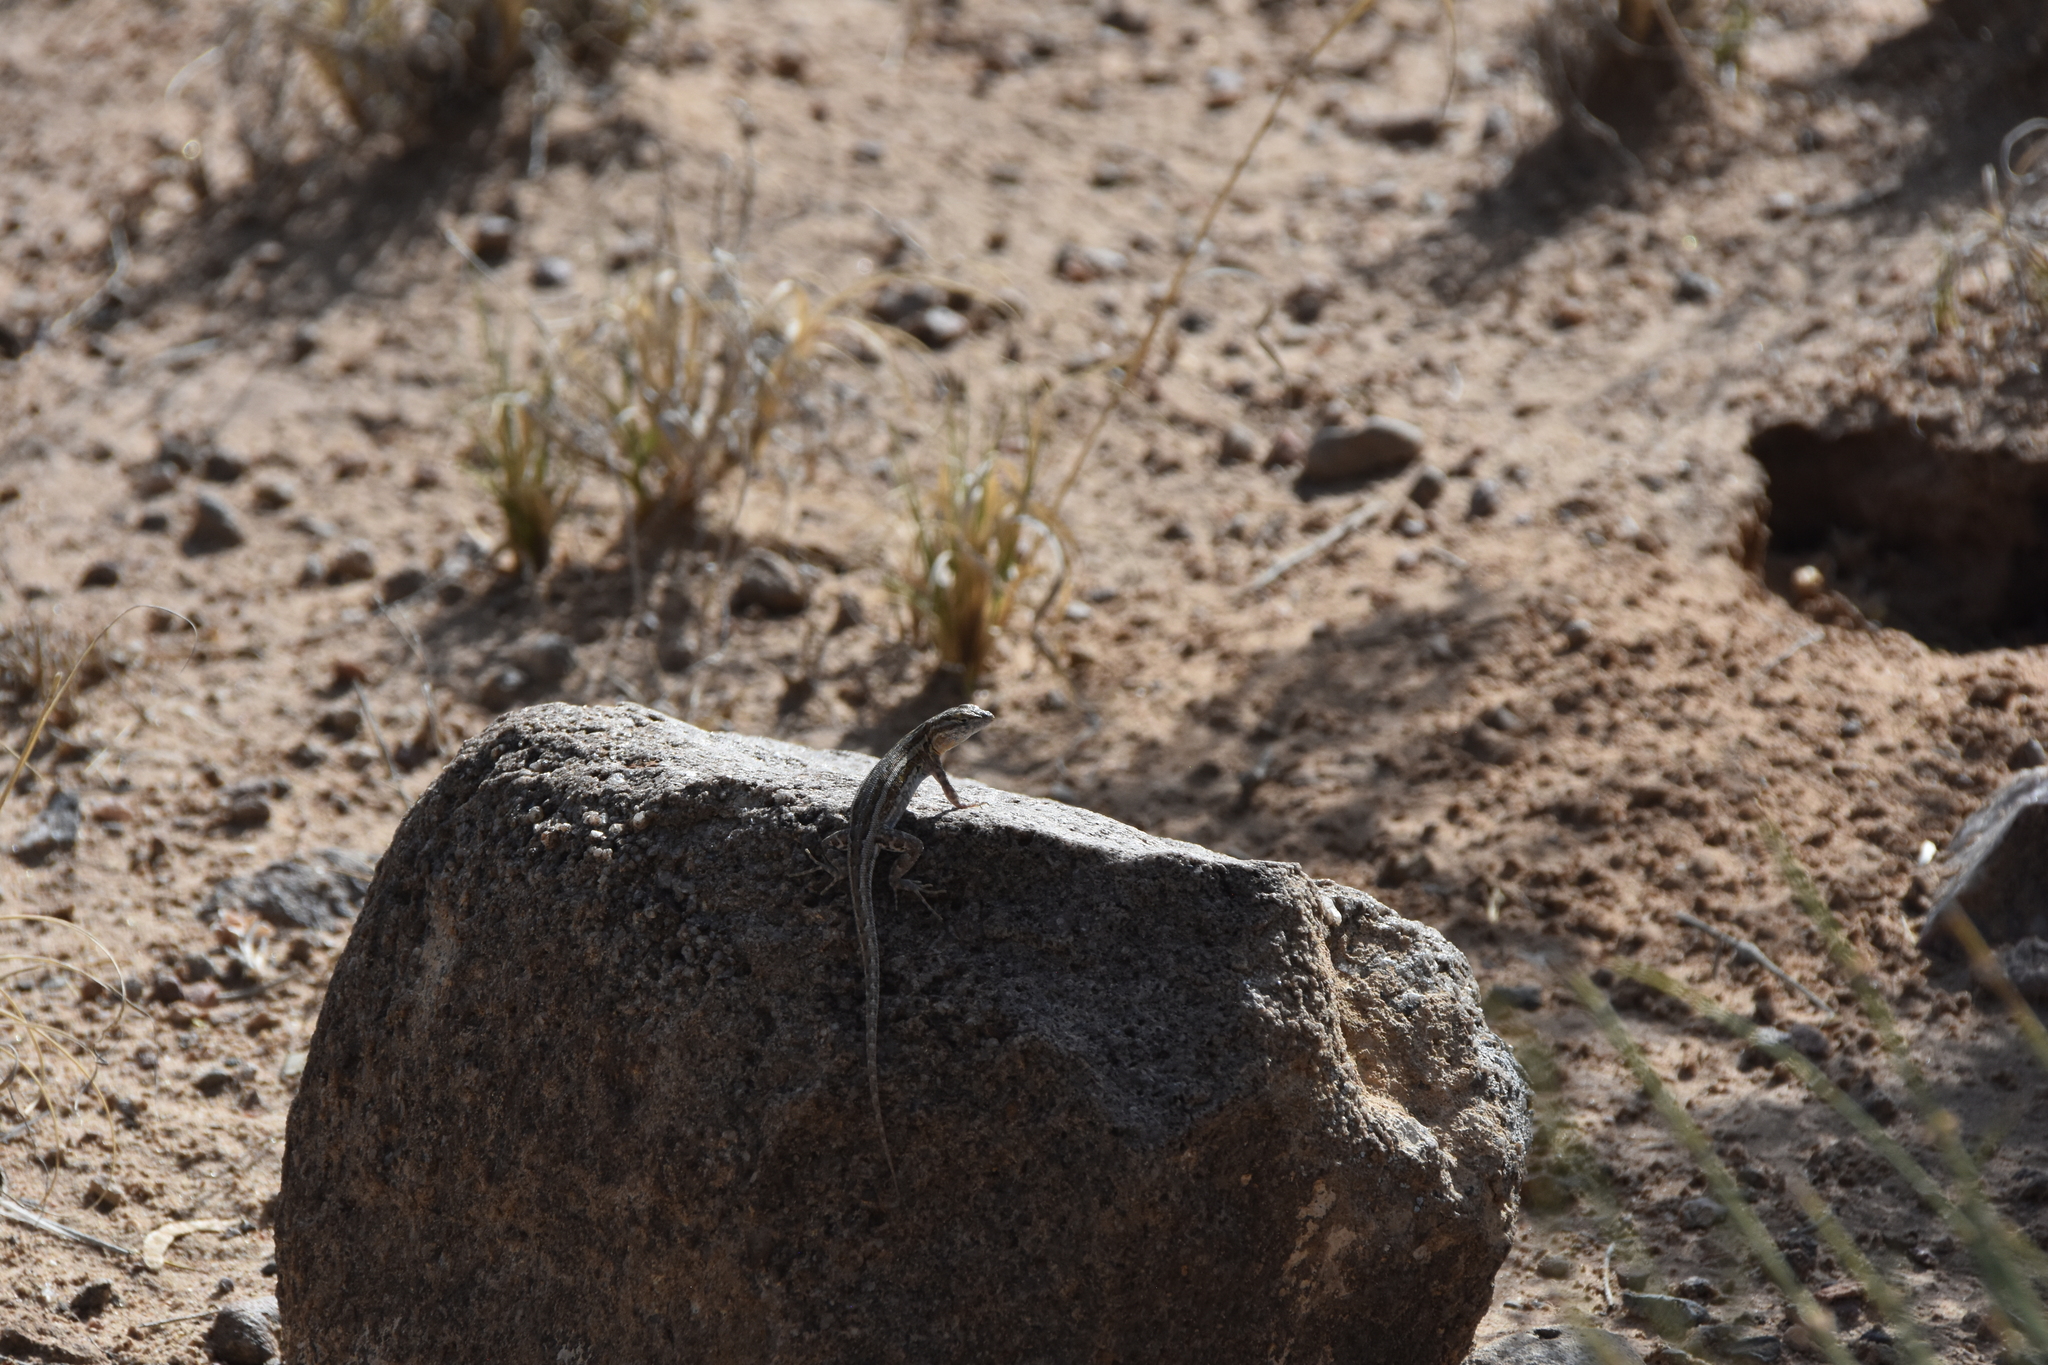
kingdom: Animalia
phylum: Chordata
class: Squamata
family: Phrynosomatidae
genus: Uta
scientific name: Uta stansburiana
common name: Side-blotched lizard
